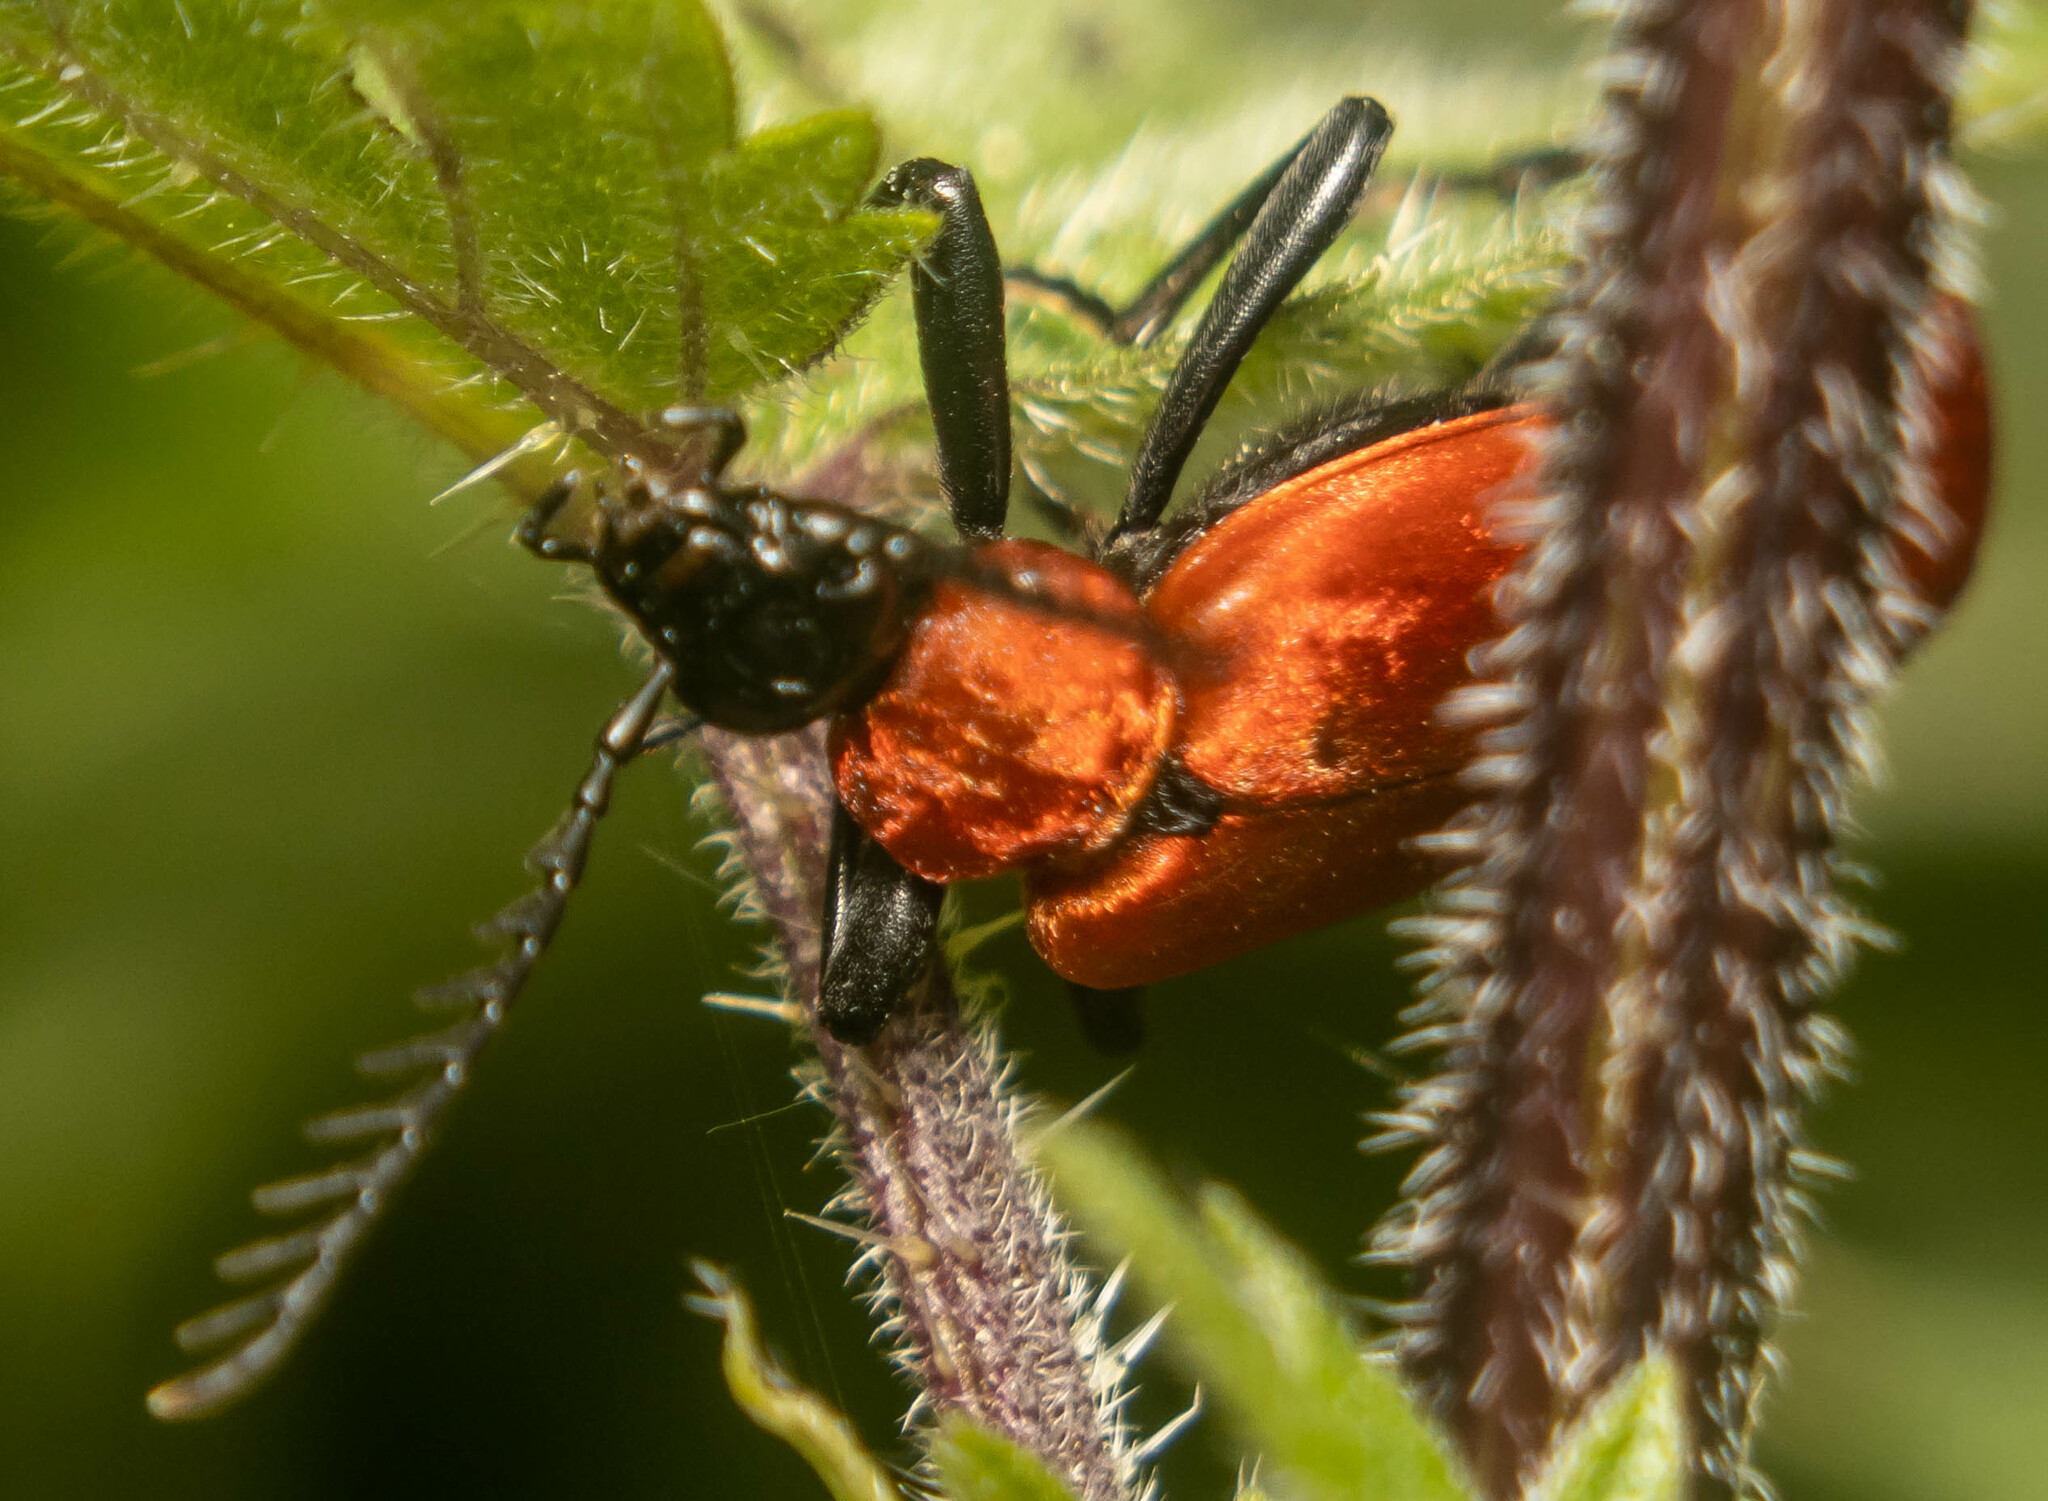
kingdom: Animalia
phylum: Arthropoda
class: Insecta
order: Coleoptera
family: Pyrochroidae
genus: Pyrochroa
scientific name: Pyrochroa coccinea
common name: Black-headed cardinal beetle
